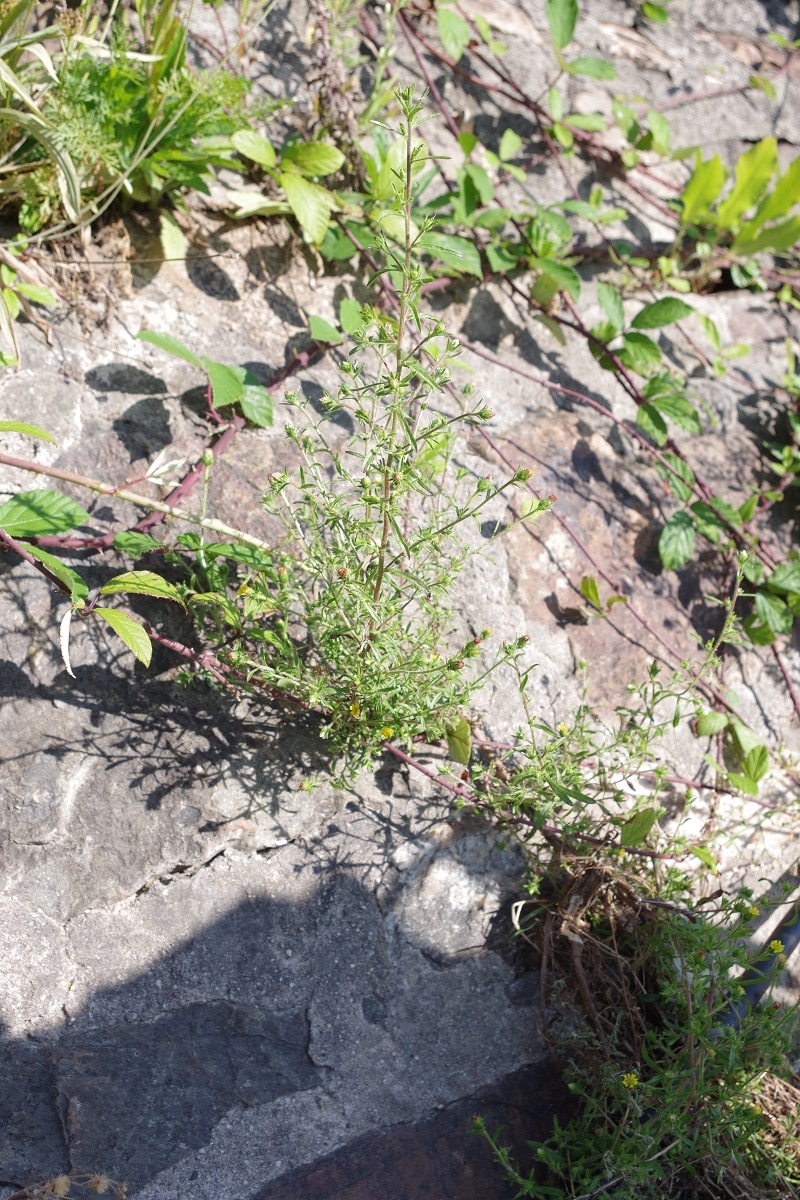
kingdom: Plantae
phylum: Tracheophyta
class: Magnoliopsida
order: Asterales
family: Asteraceae
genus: Dittrichia
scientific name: Dittrichia graveolens
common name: Stinking fleabane
